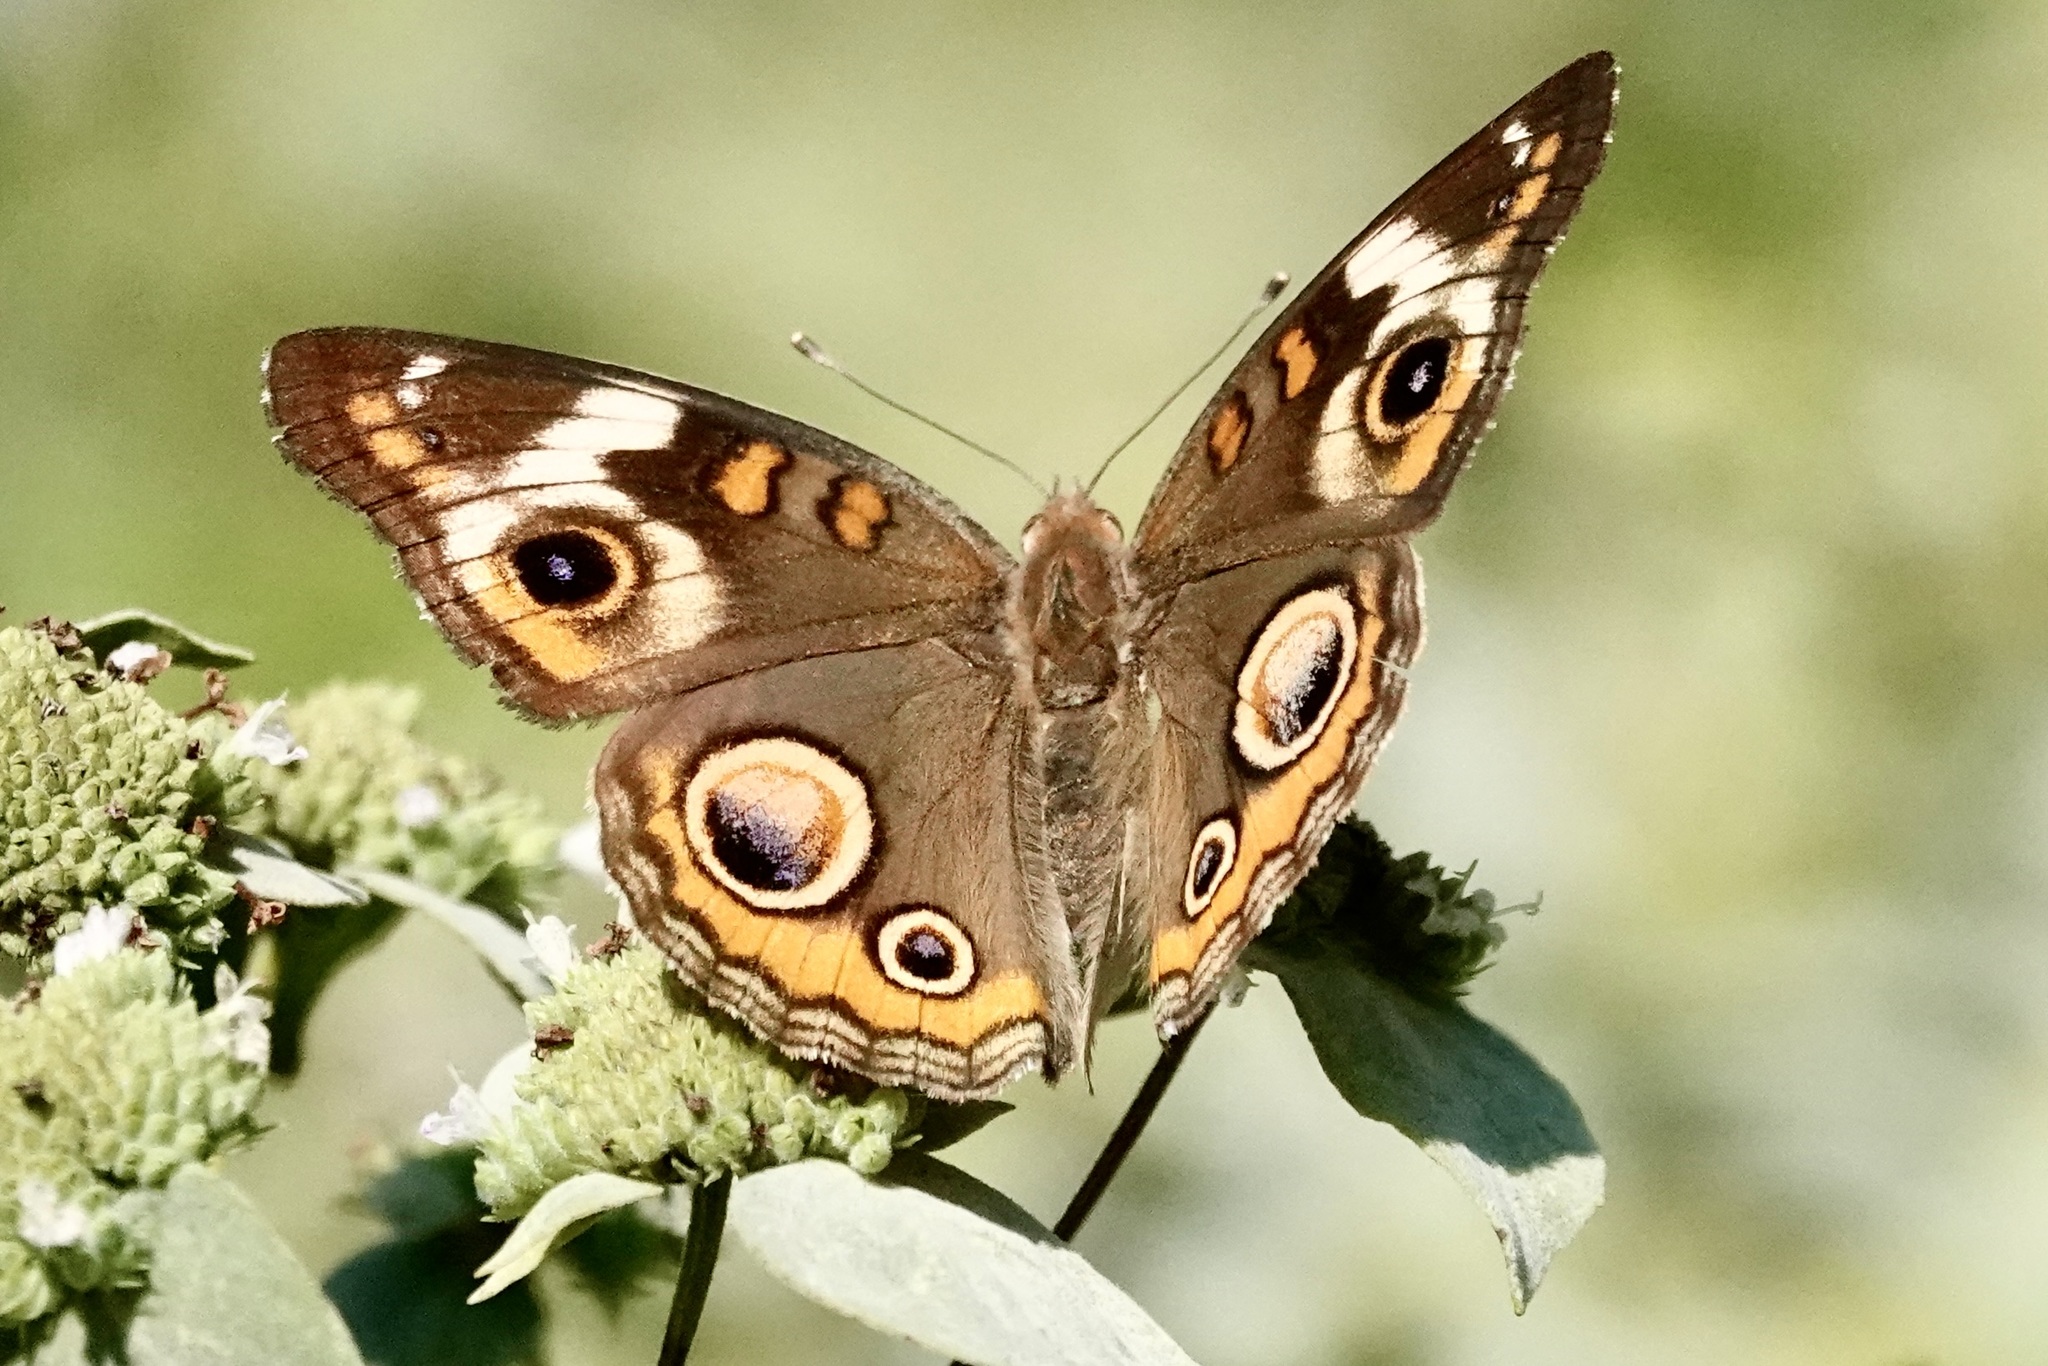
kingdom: Animalia
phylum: Arthropoda
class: Insecta
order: Lepidoptera
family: Nymphalidae
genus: Junonia
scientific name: Junonia coenia
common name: Common buckeye
